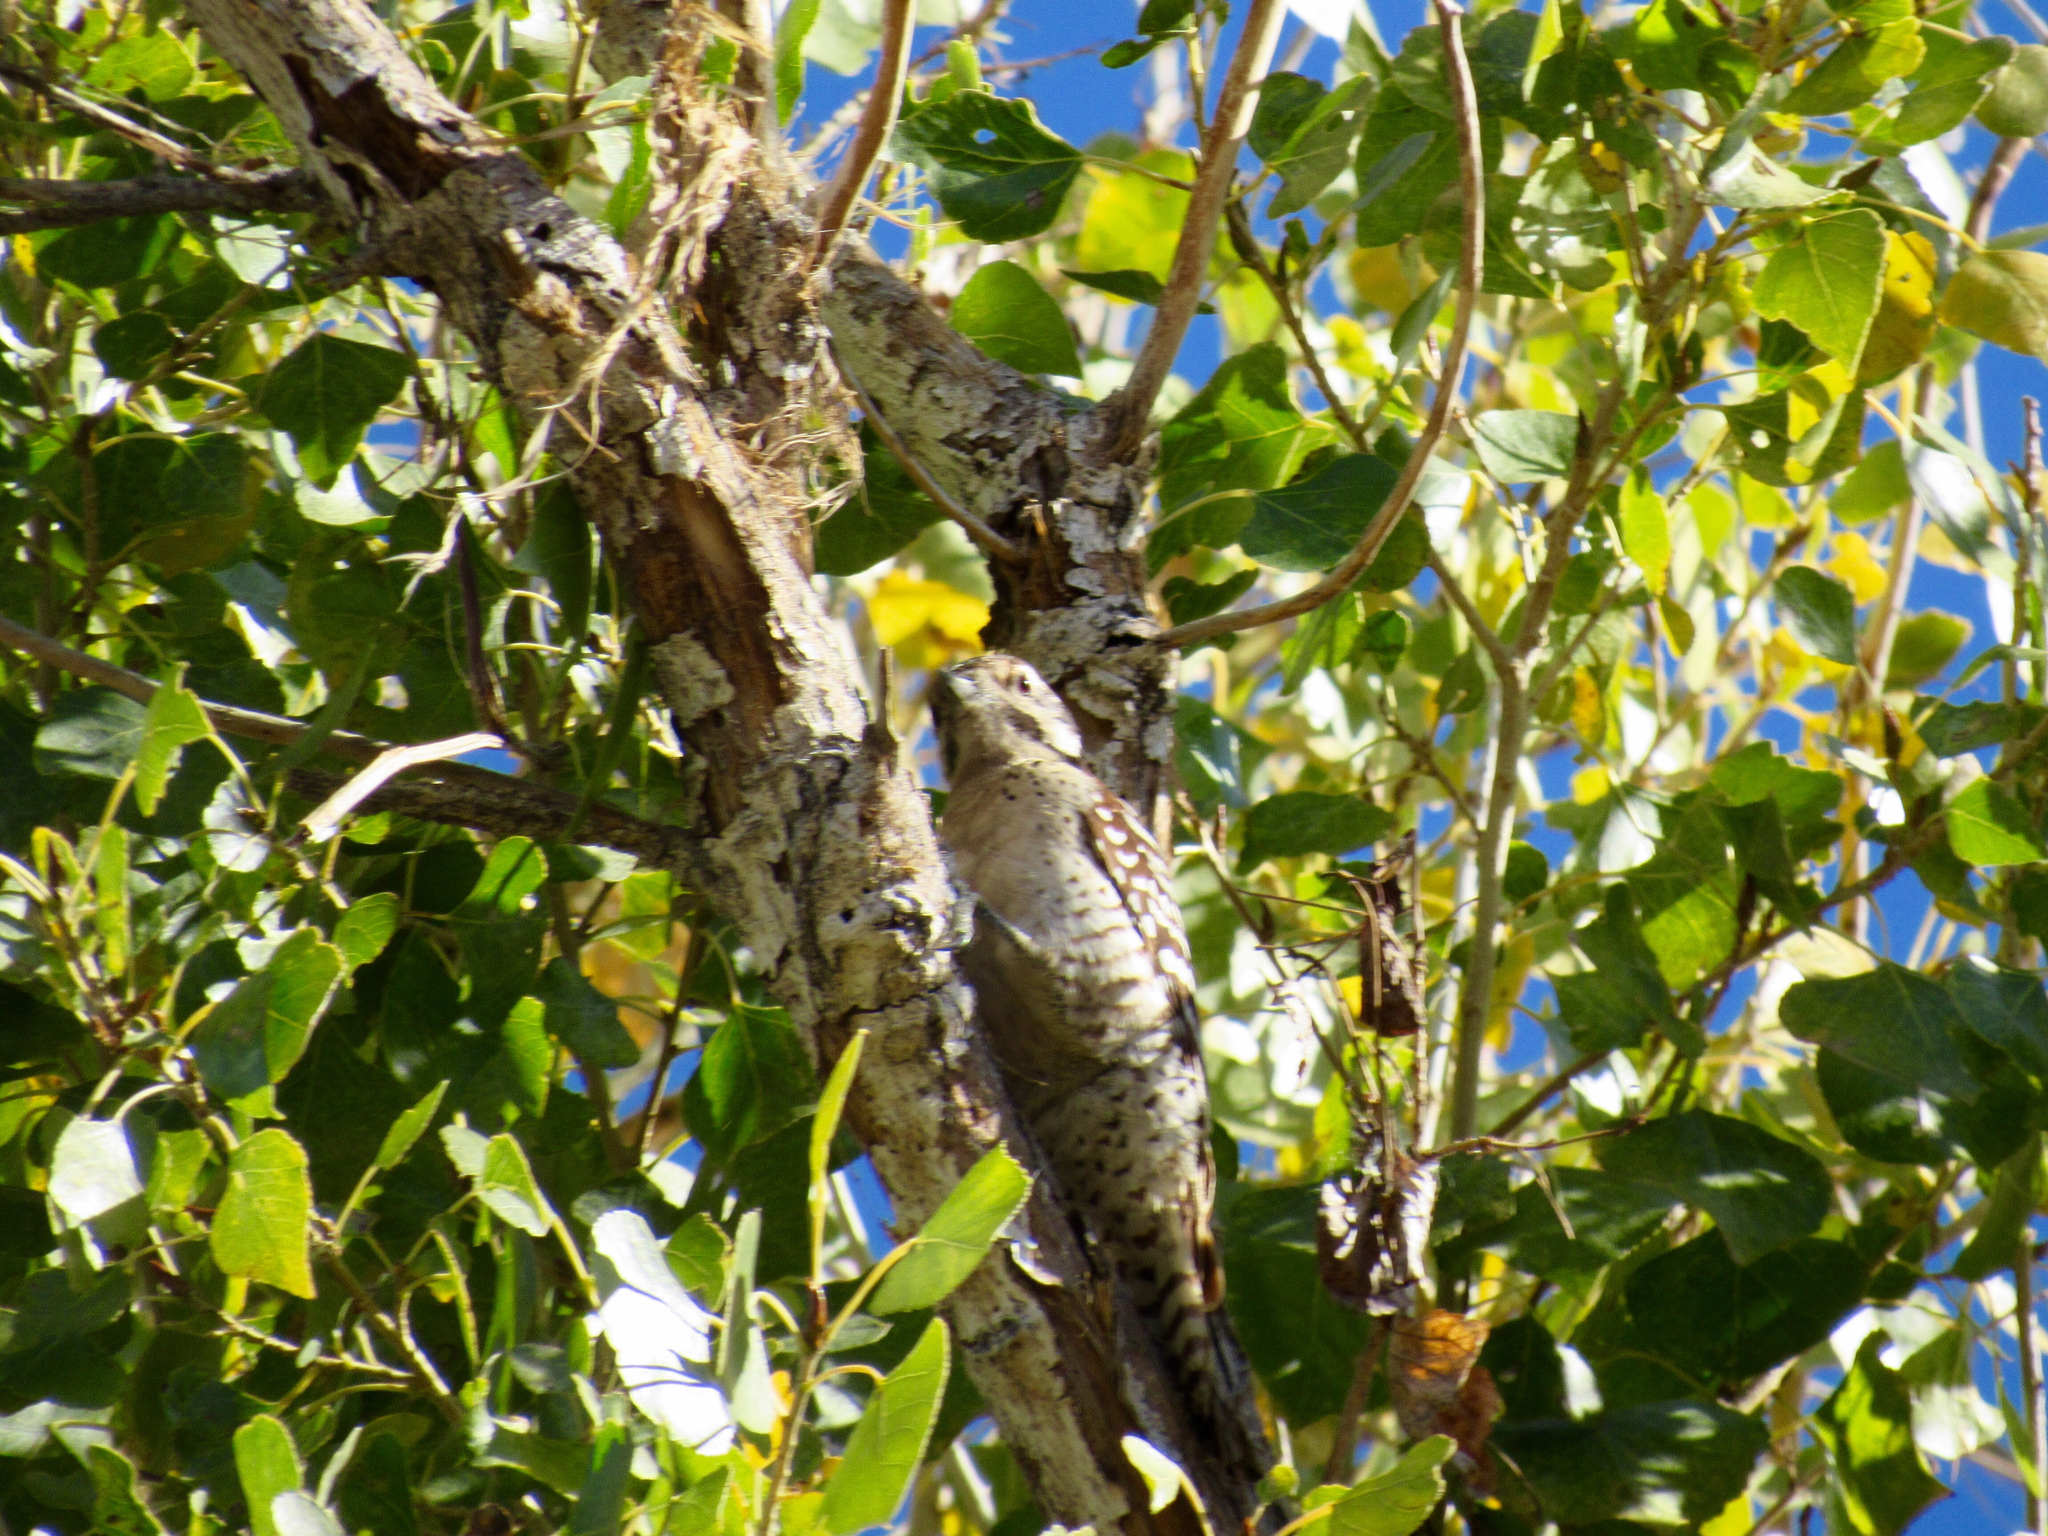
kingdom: Animalia
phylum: Chordata
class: Aves
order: Piciformes
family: Picidae
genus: Dryobates
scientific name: Dryobates scalaris
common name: Ladder-backed woodpecker
